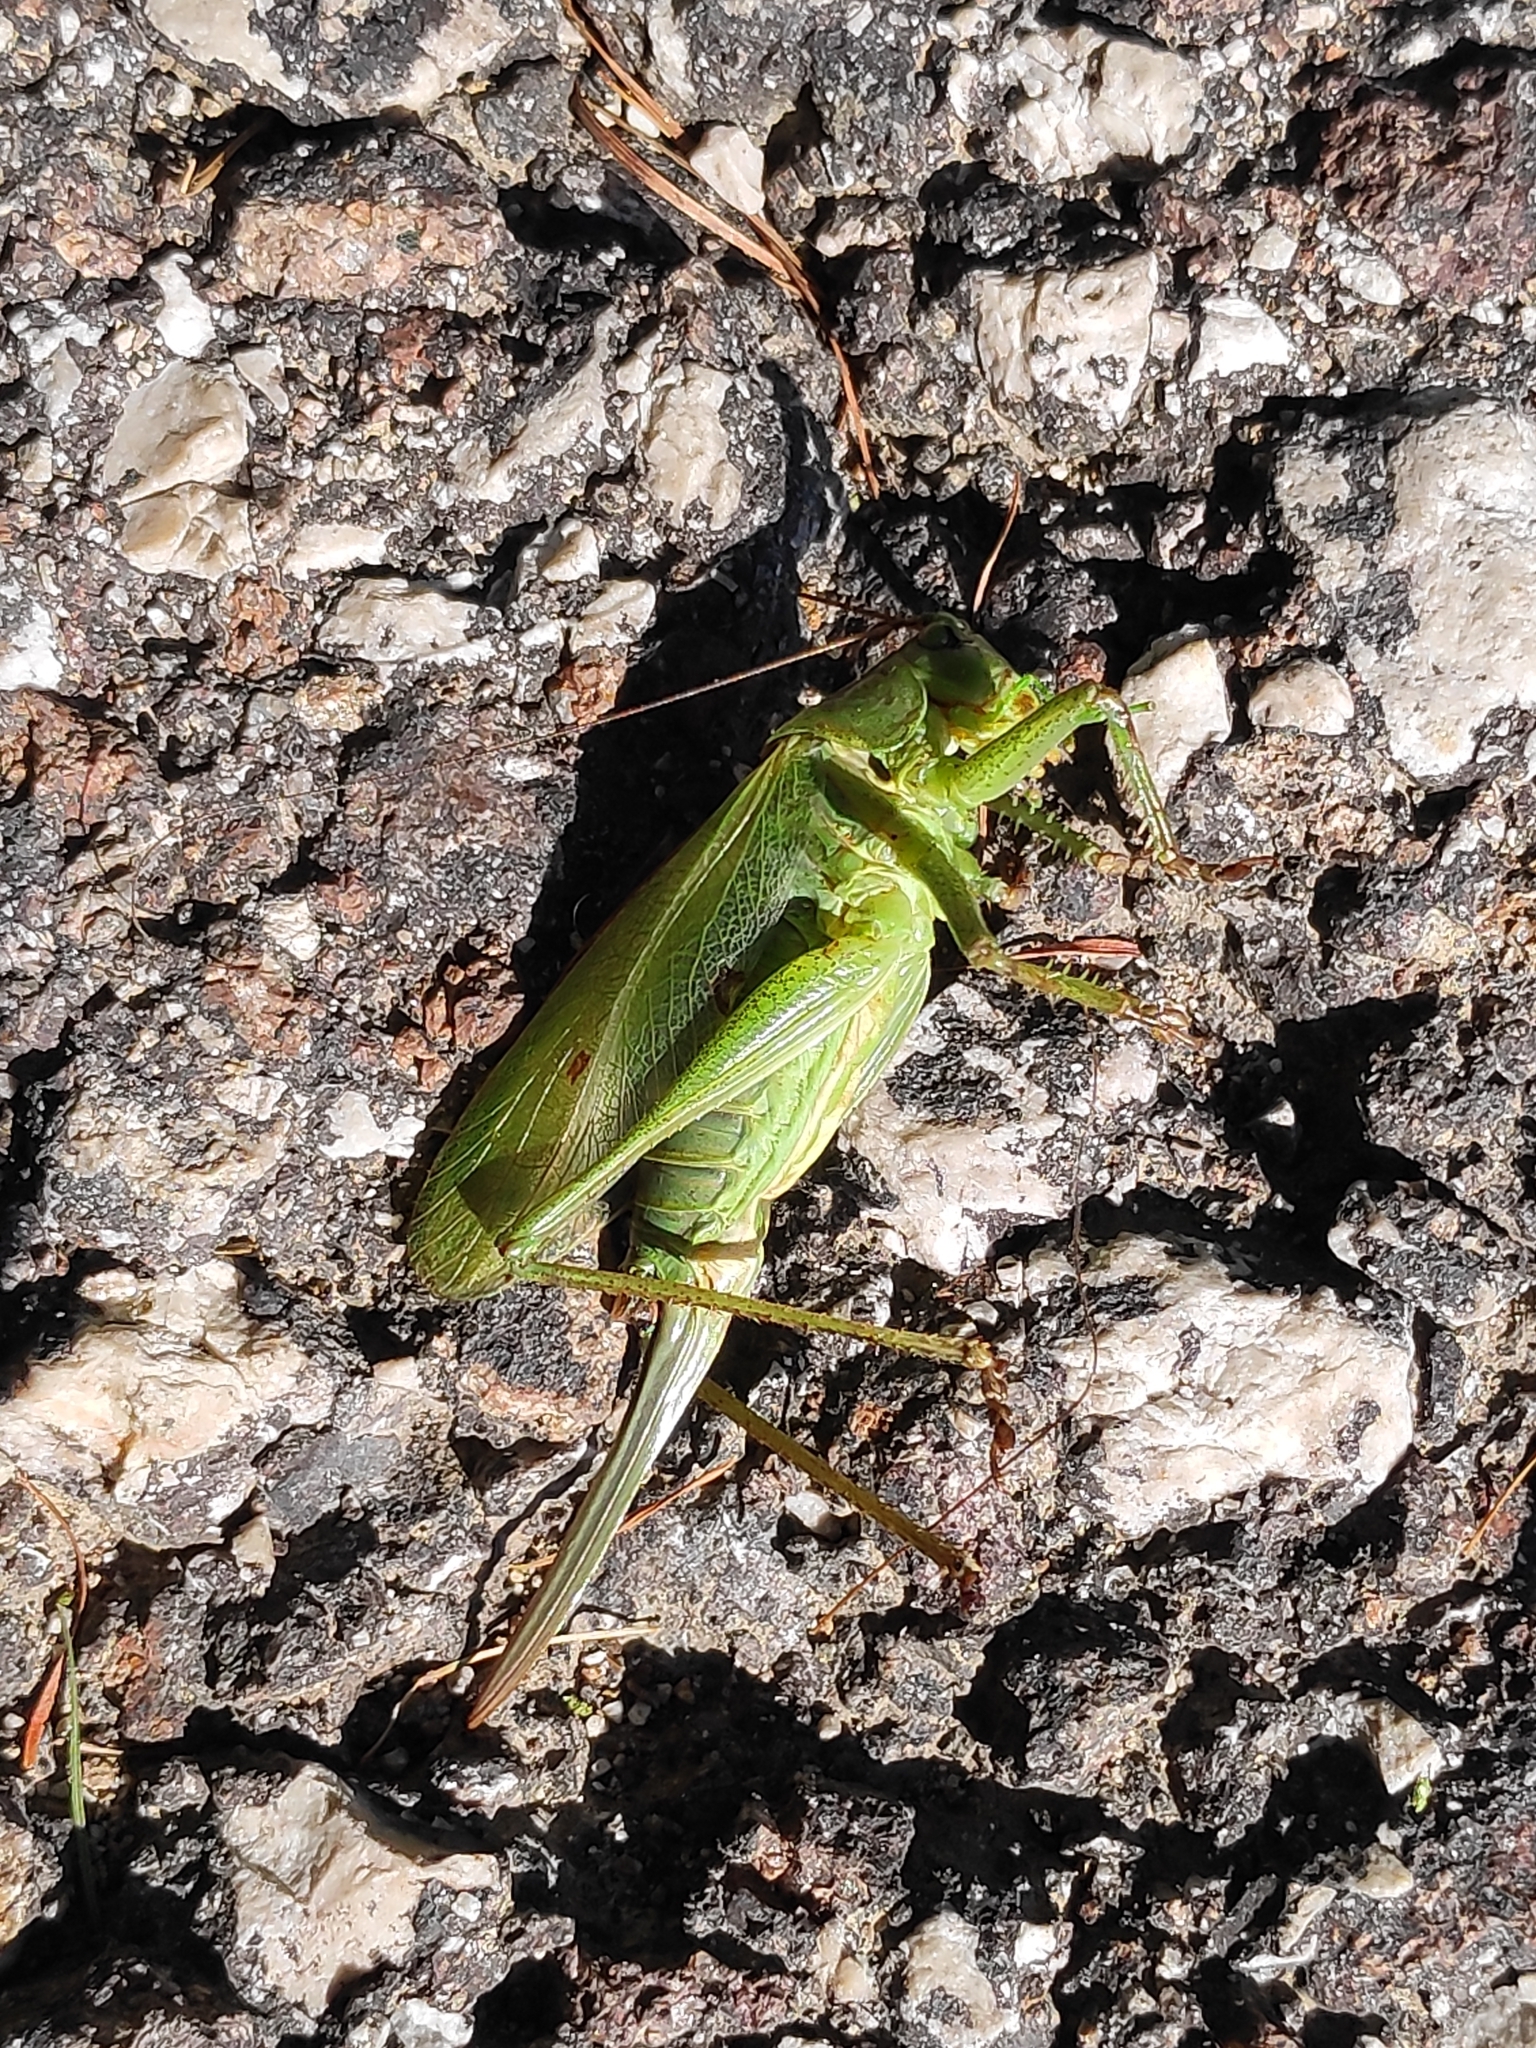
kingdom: Animalia
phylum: Arthropoda
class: Insecta
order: Orthoptera
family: Tettigoniidae
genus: Tettigonia
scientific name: Tettigonia cantans
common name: Upland green bush-cricket
